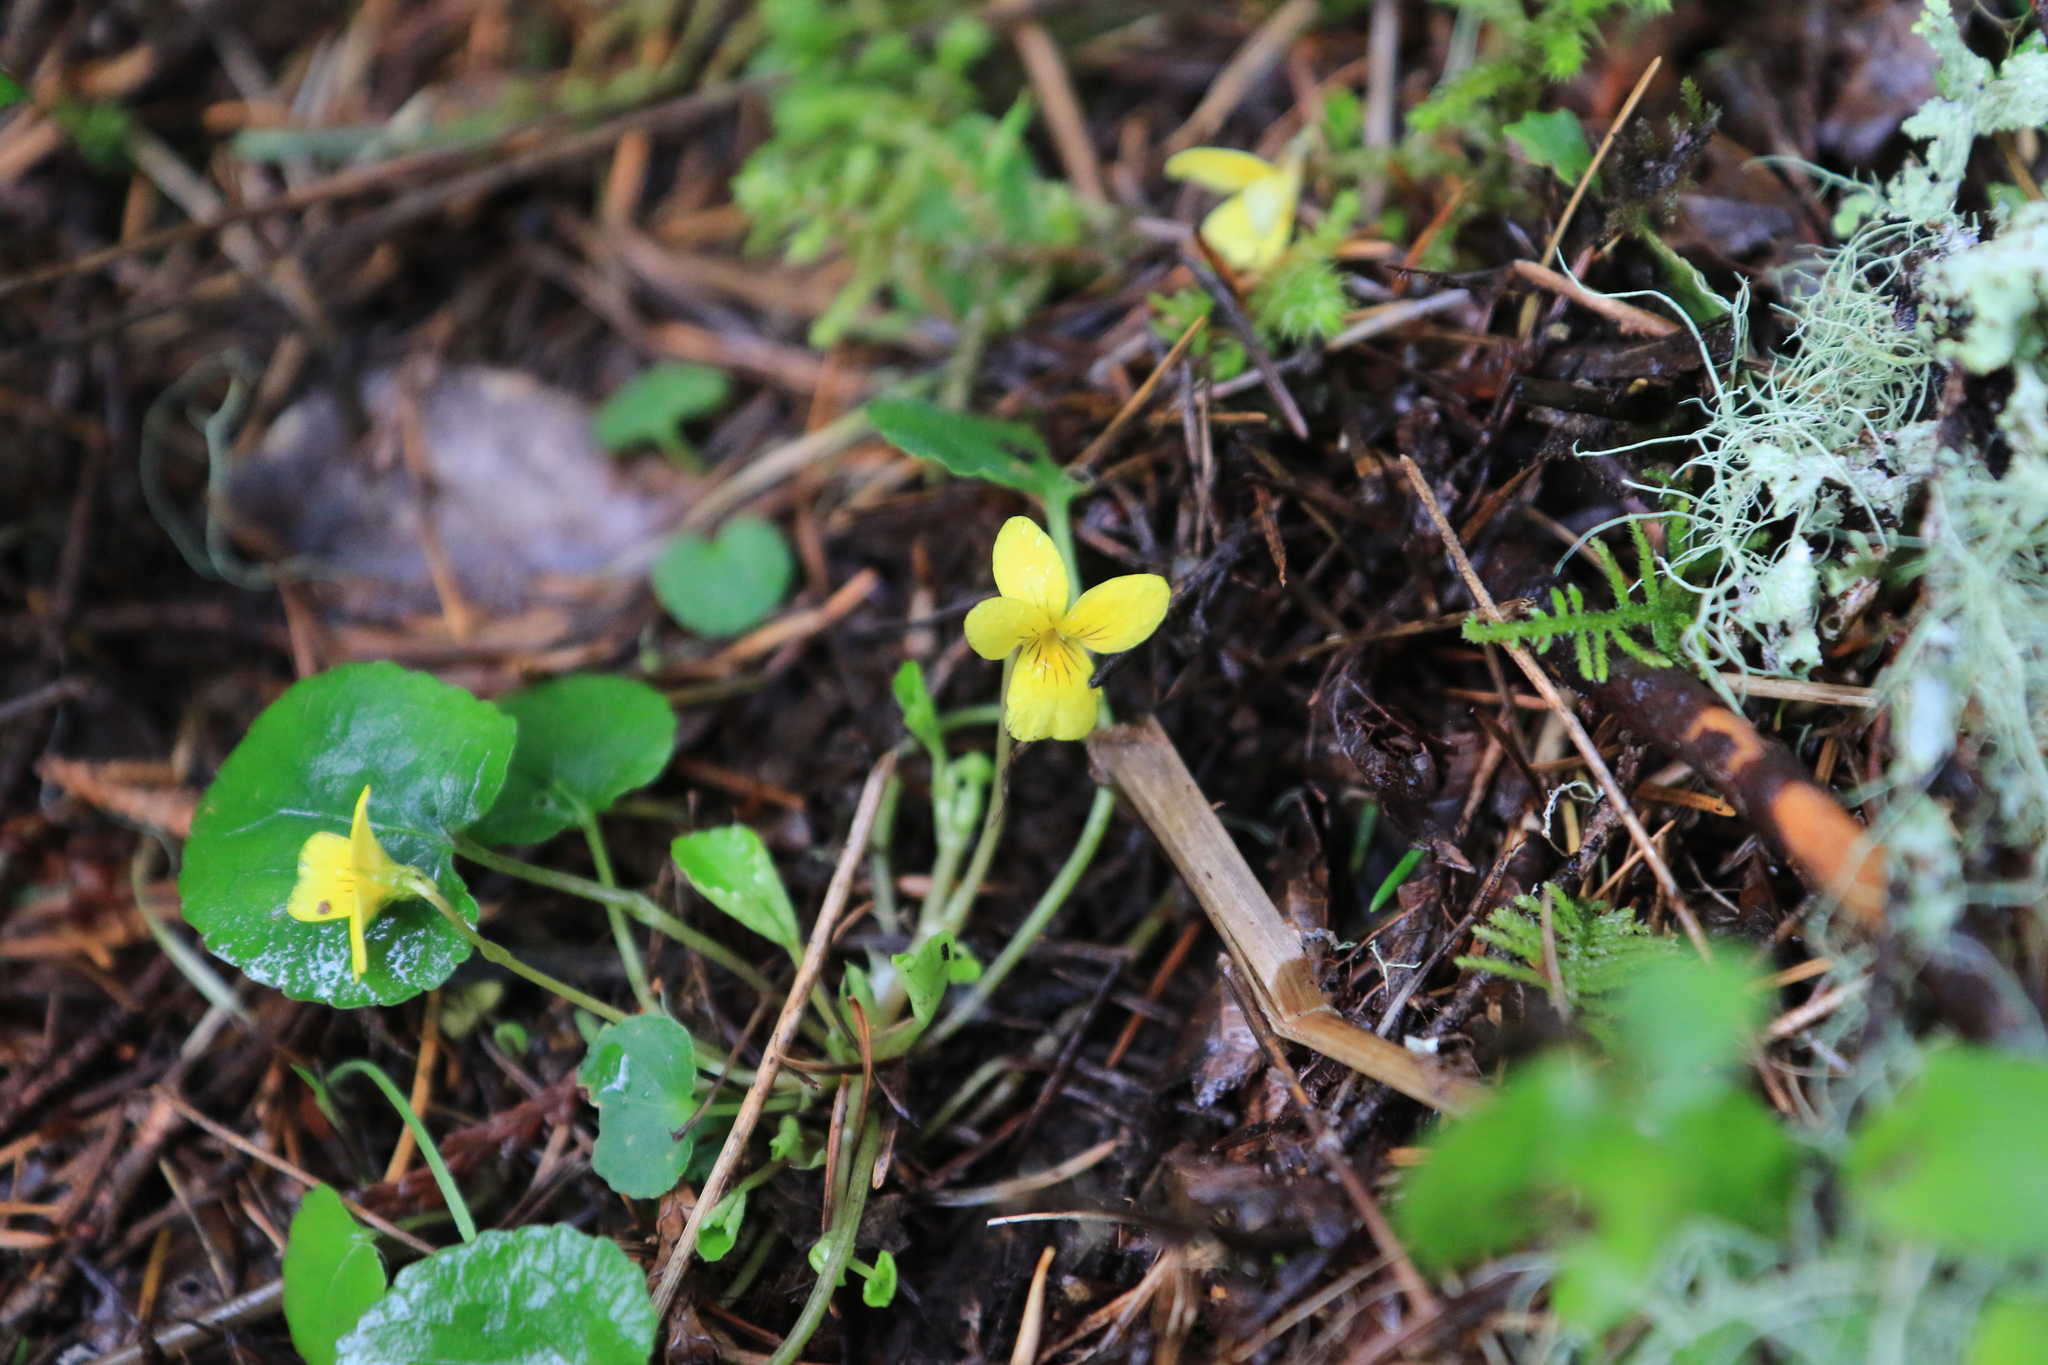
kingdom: Plantae
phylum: Tracheophyta
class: Magnoliopsida
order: Malpighiales
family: Violaceae
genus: Viola
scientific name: Viola sempervirens
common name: Evergreen violet
